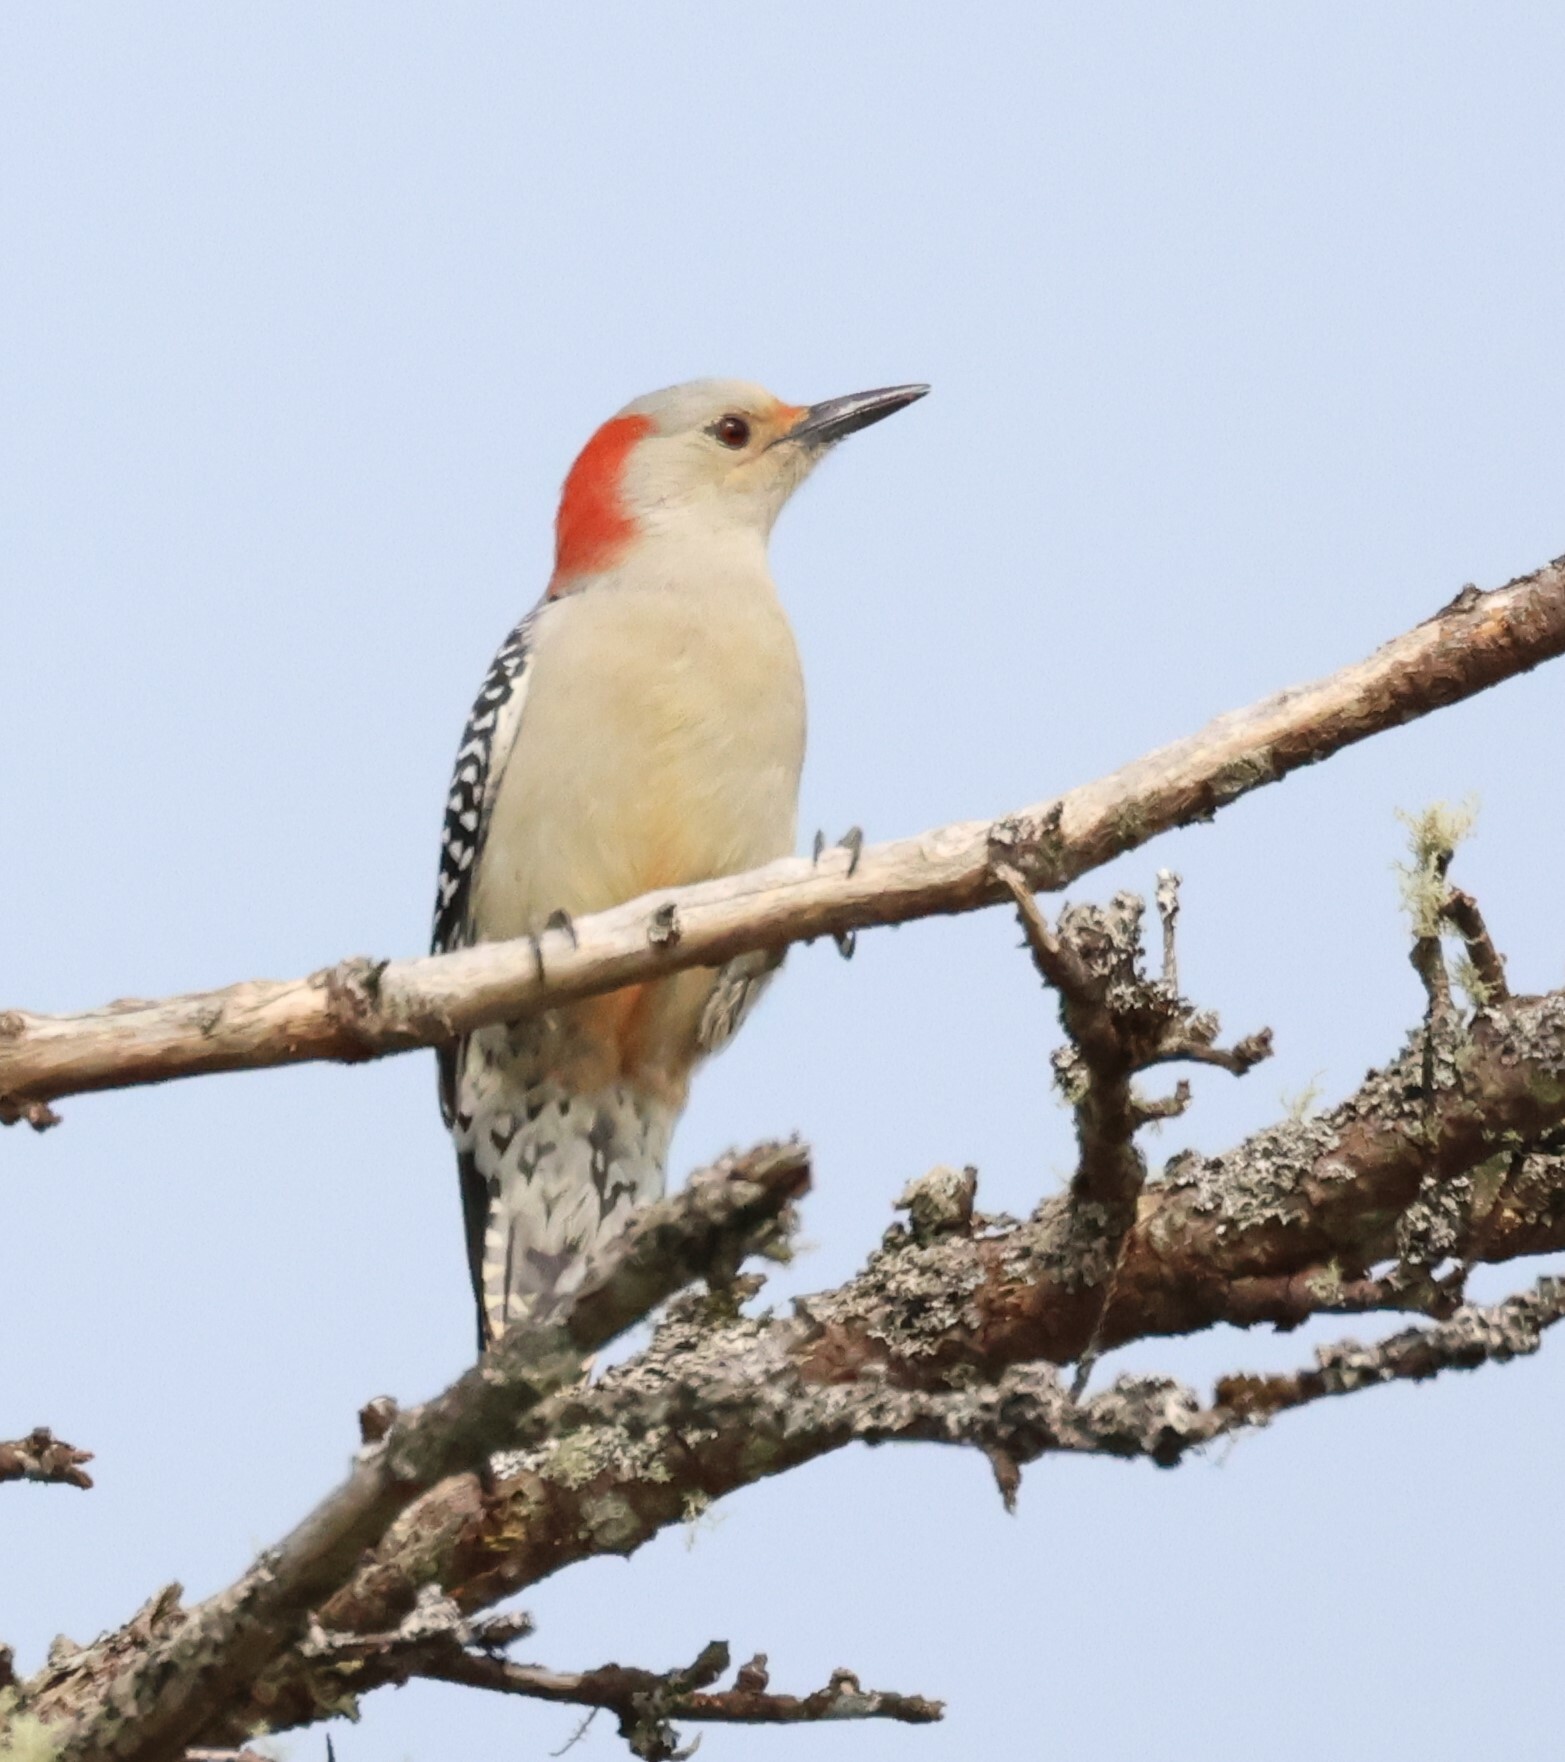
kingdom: Animalia
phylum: Chordata
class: Aves
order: Piciformes
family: Picidae
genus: Melanerpes
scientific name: Melanerpes carolinus
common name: Red-bellied woodpecker
